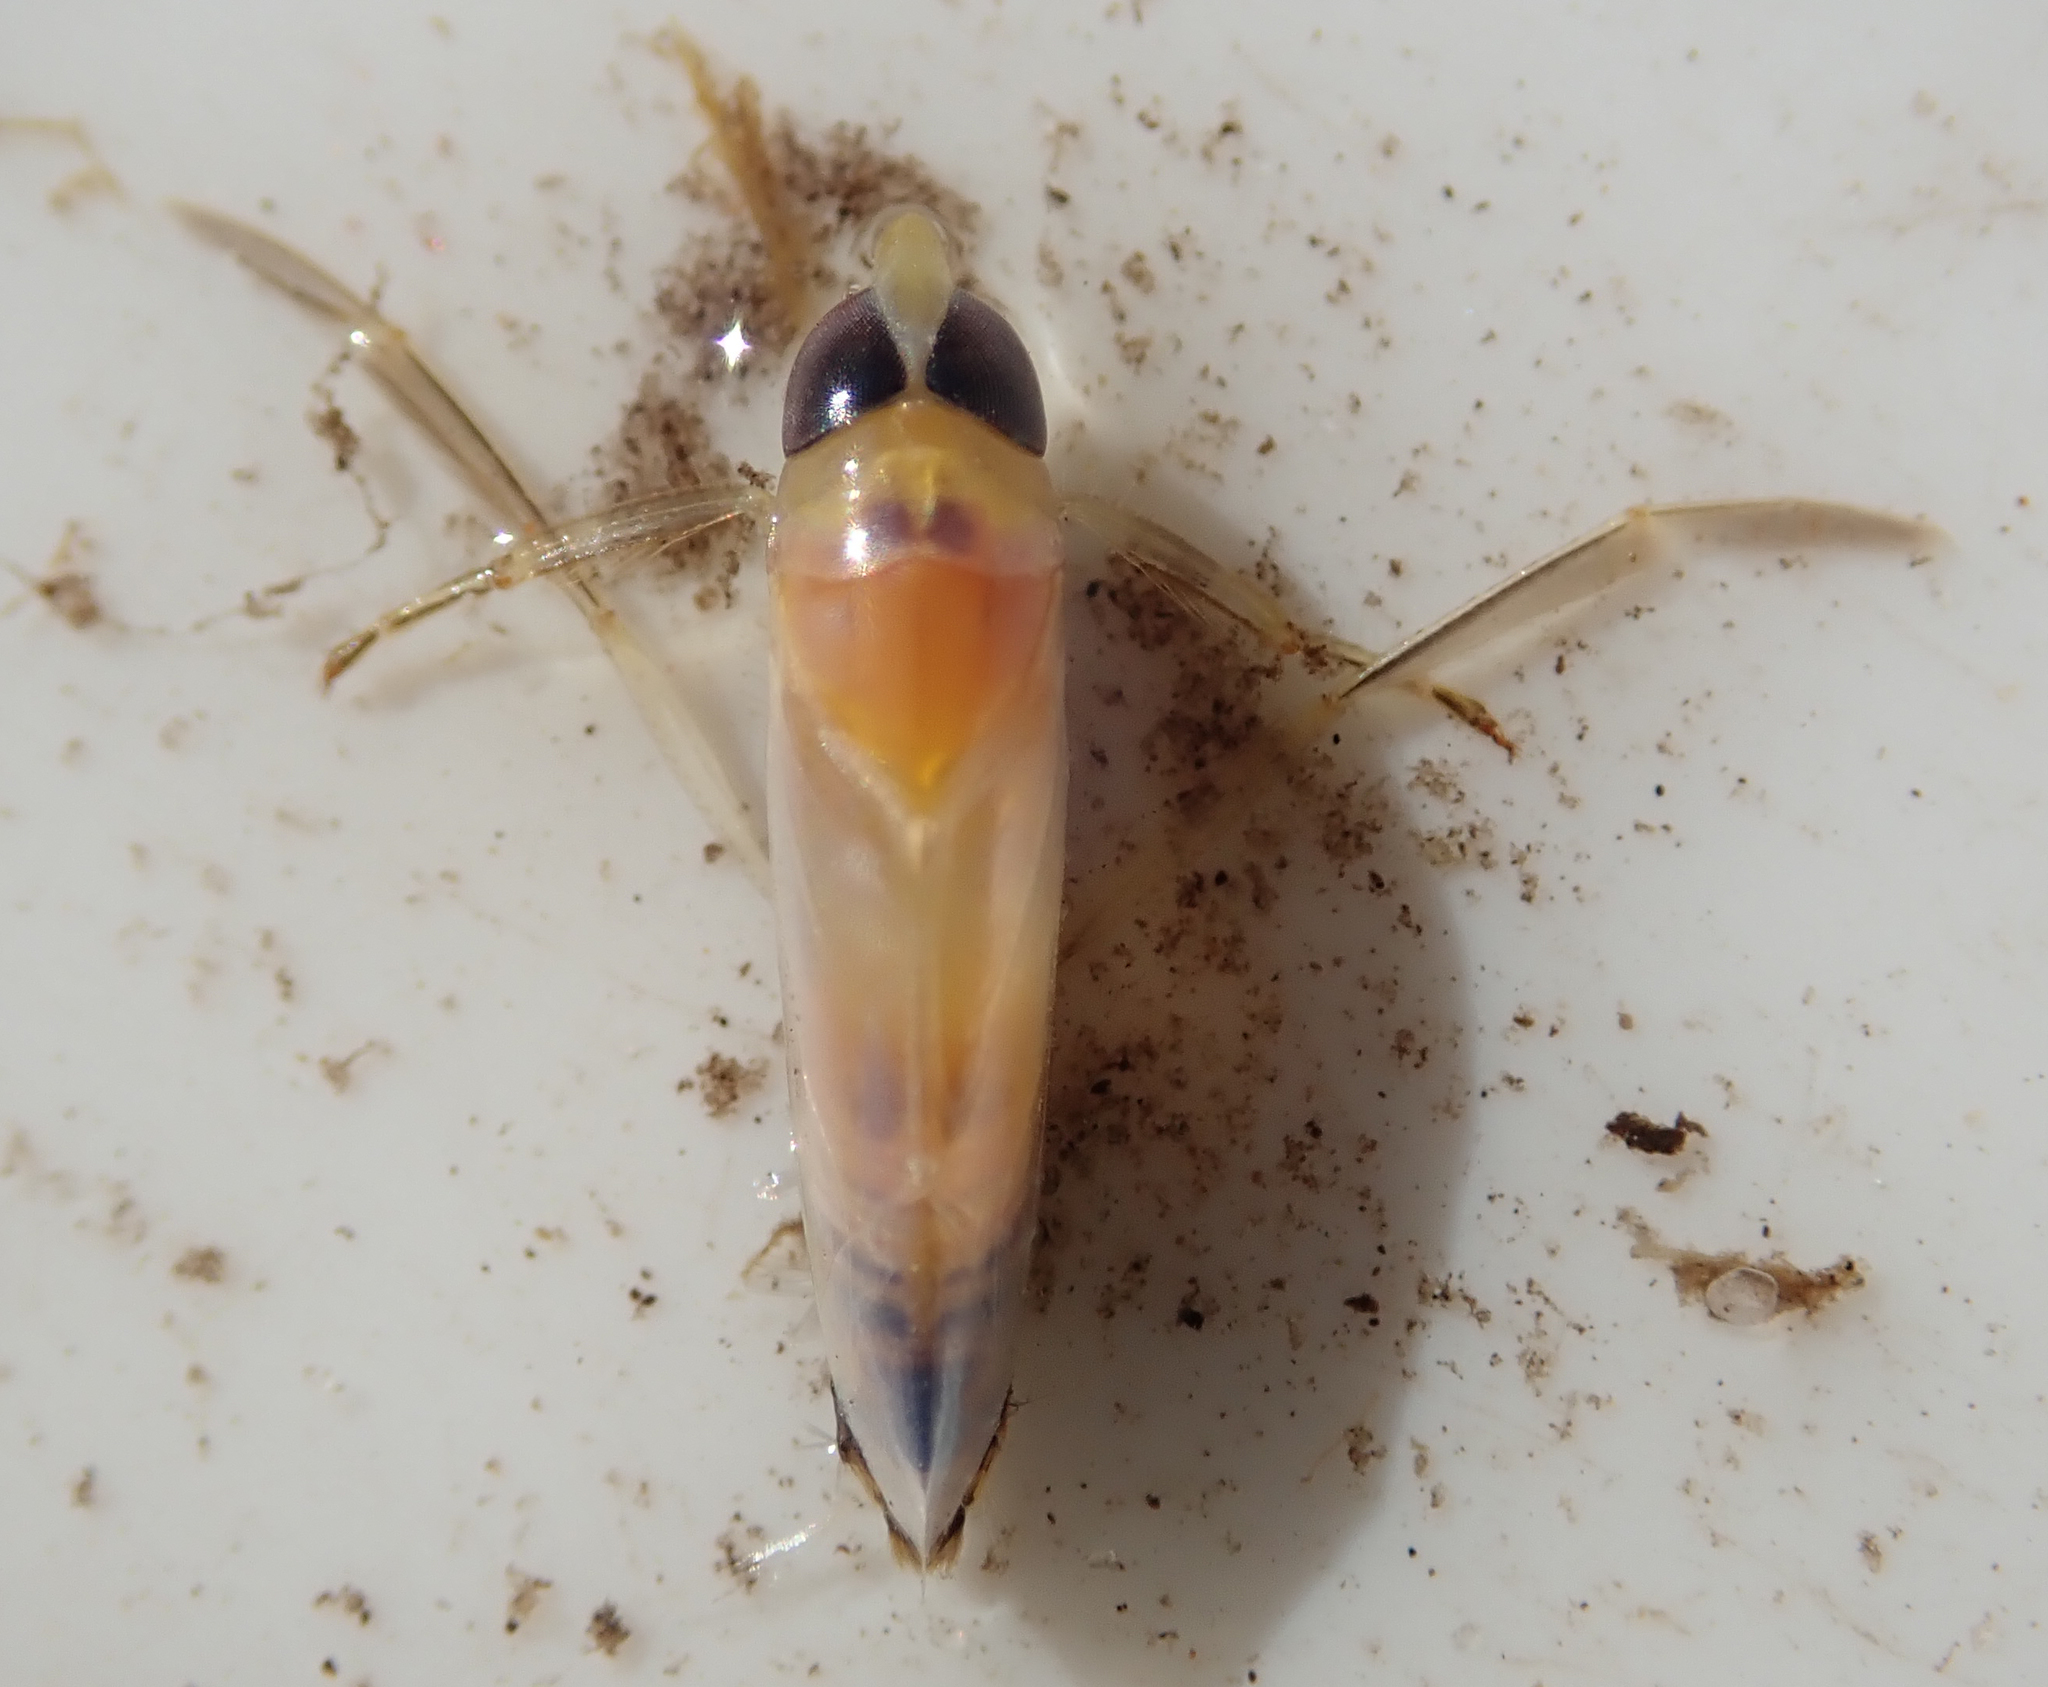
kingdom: Animalia
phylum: Arthropoda
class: Insecta
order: Hemiptera
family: Notonectidae
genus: Anisops
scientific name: Anisops sardeus
